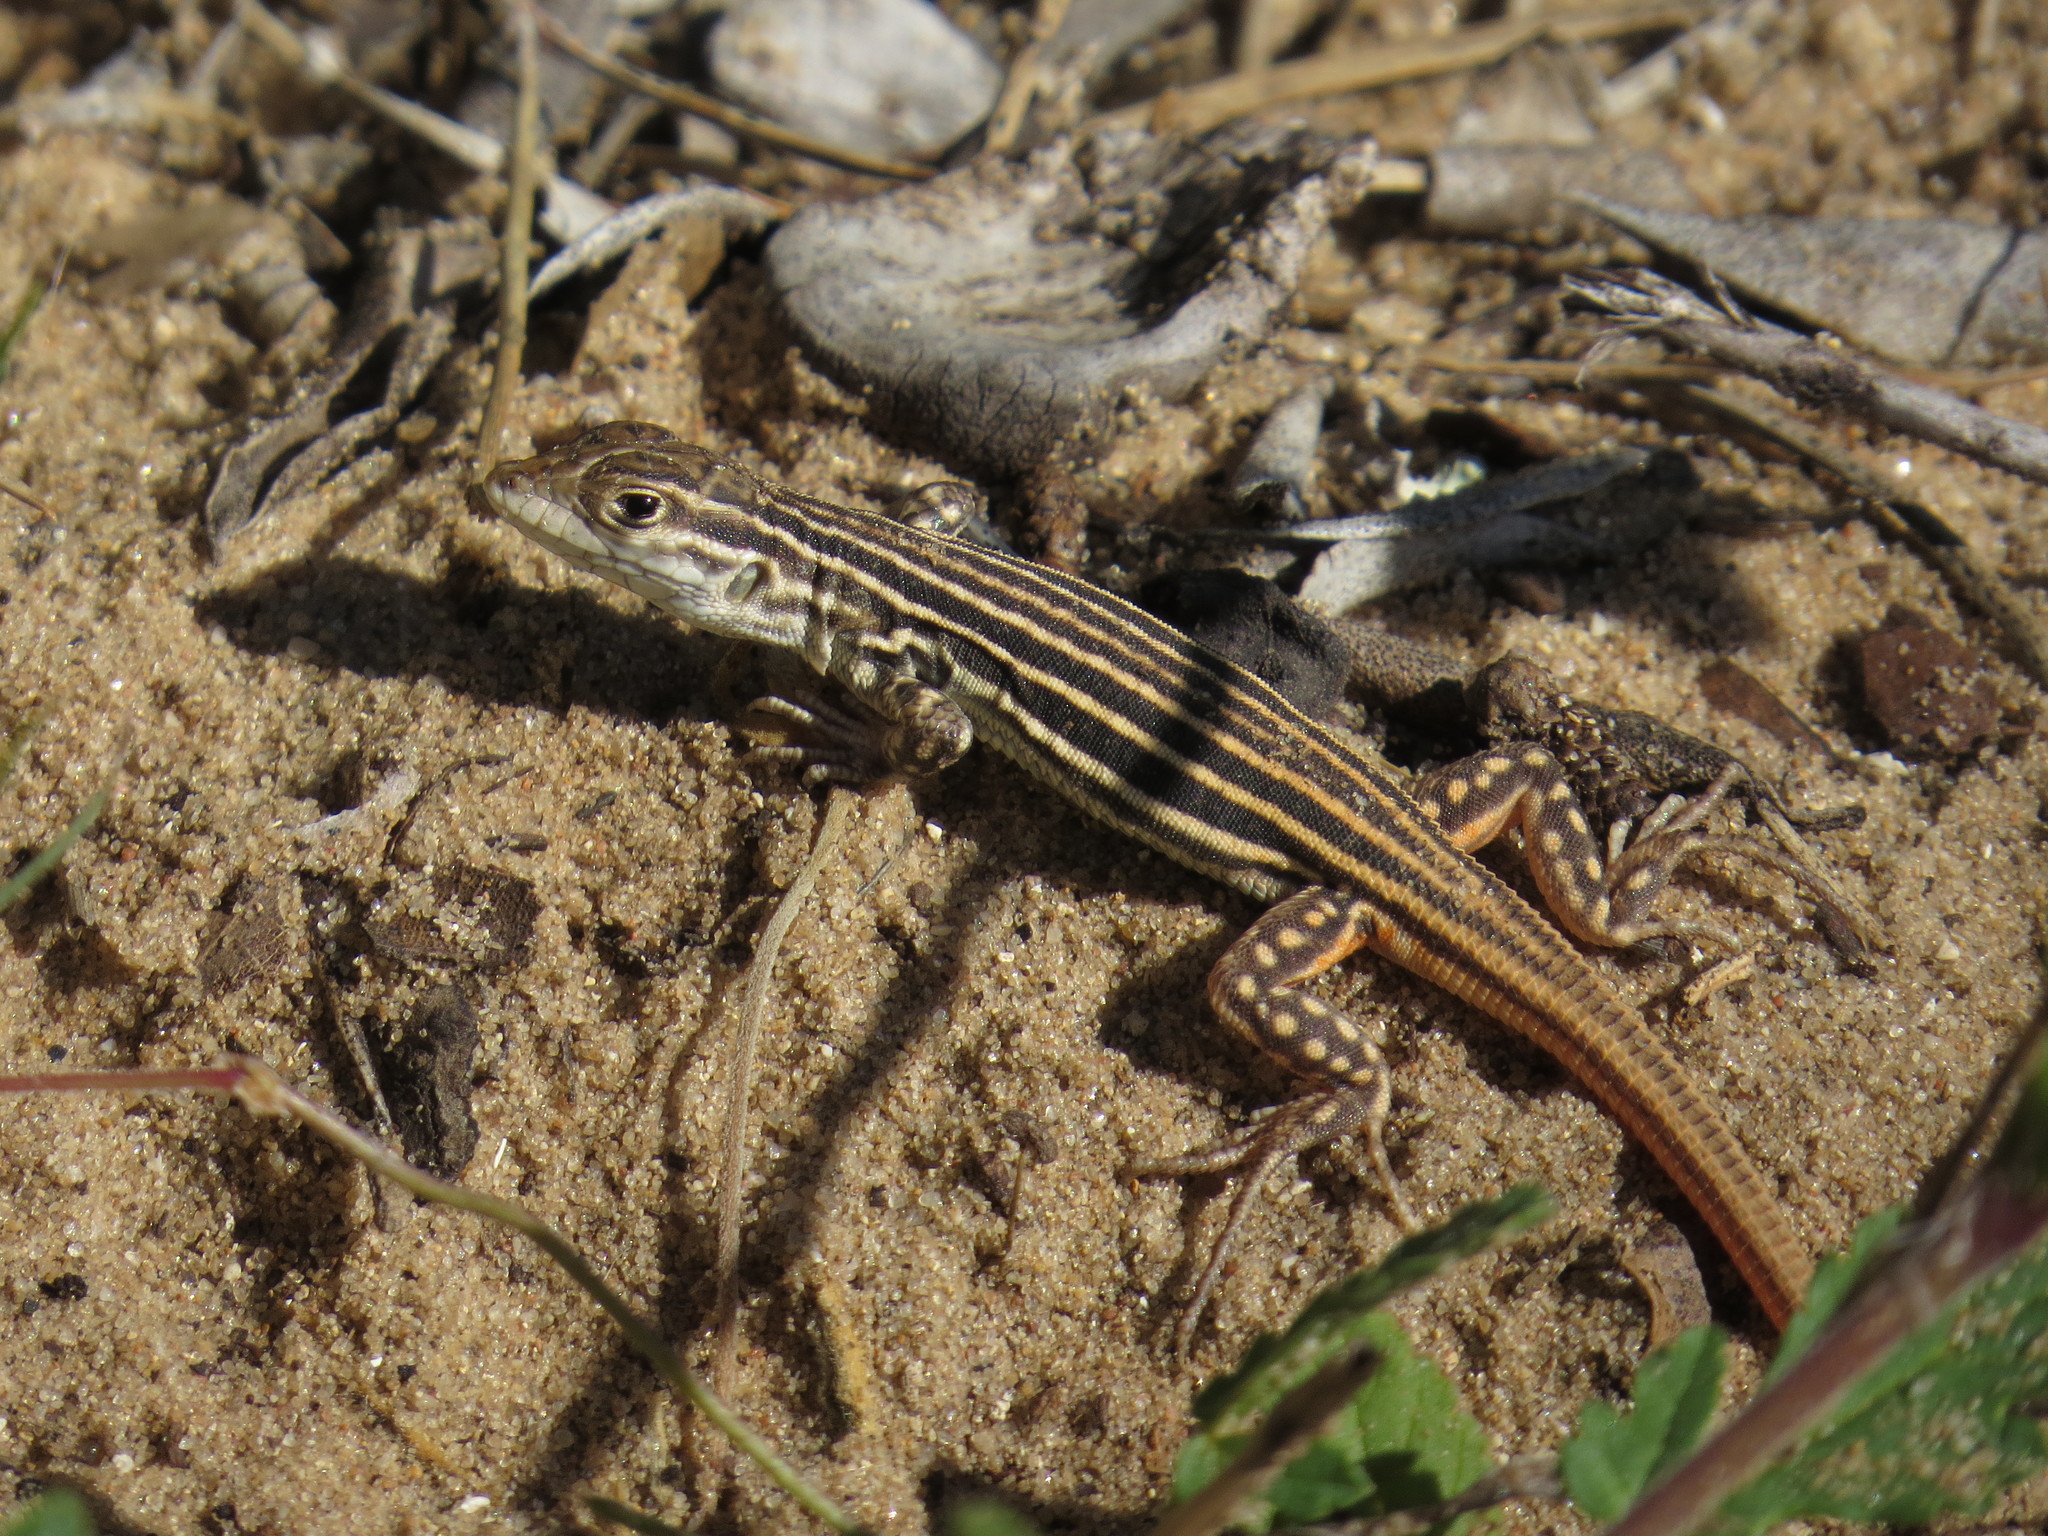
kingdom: Animalia
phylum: Chordata
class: Squamata
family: Lacertidae
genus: Acanthodactylus
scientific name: Acanthodactylus erythrurus
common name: Spiny-footed lizard
